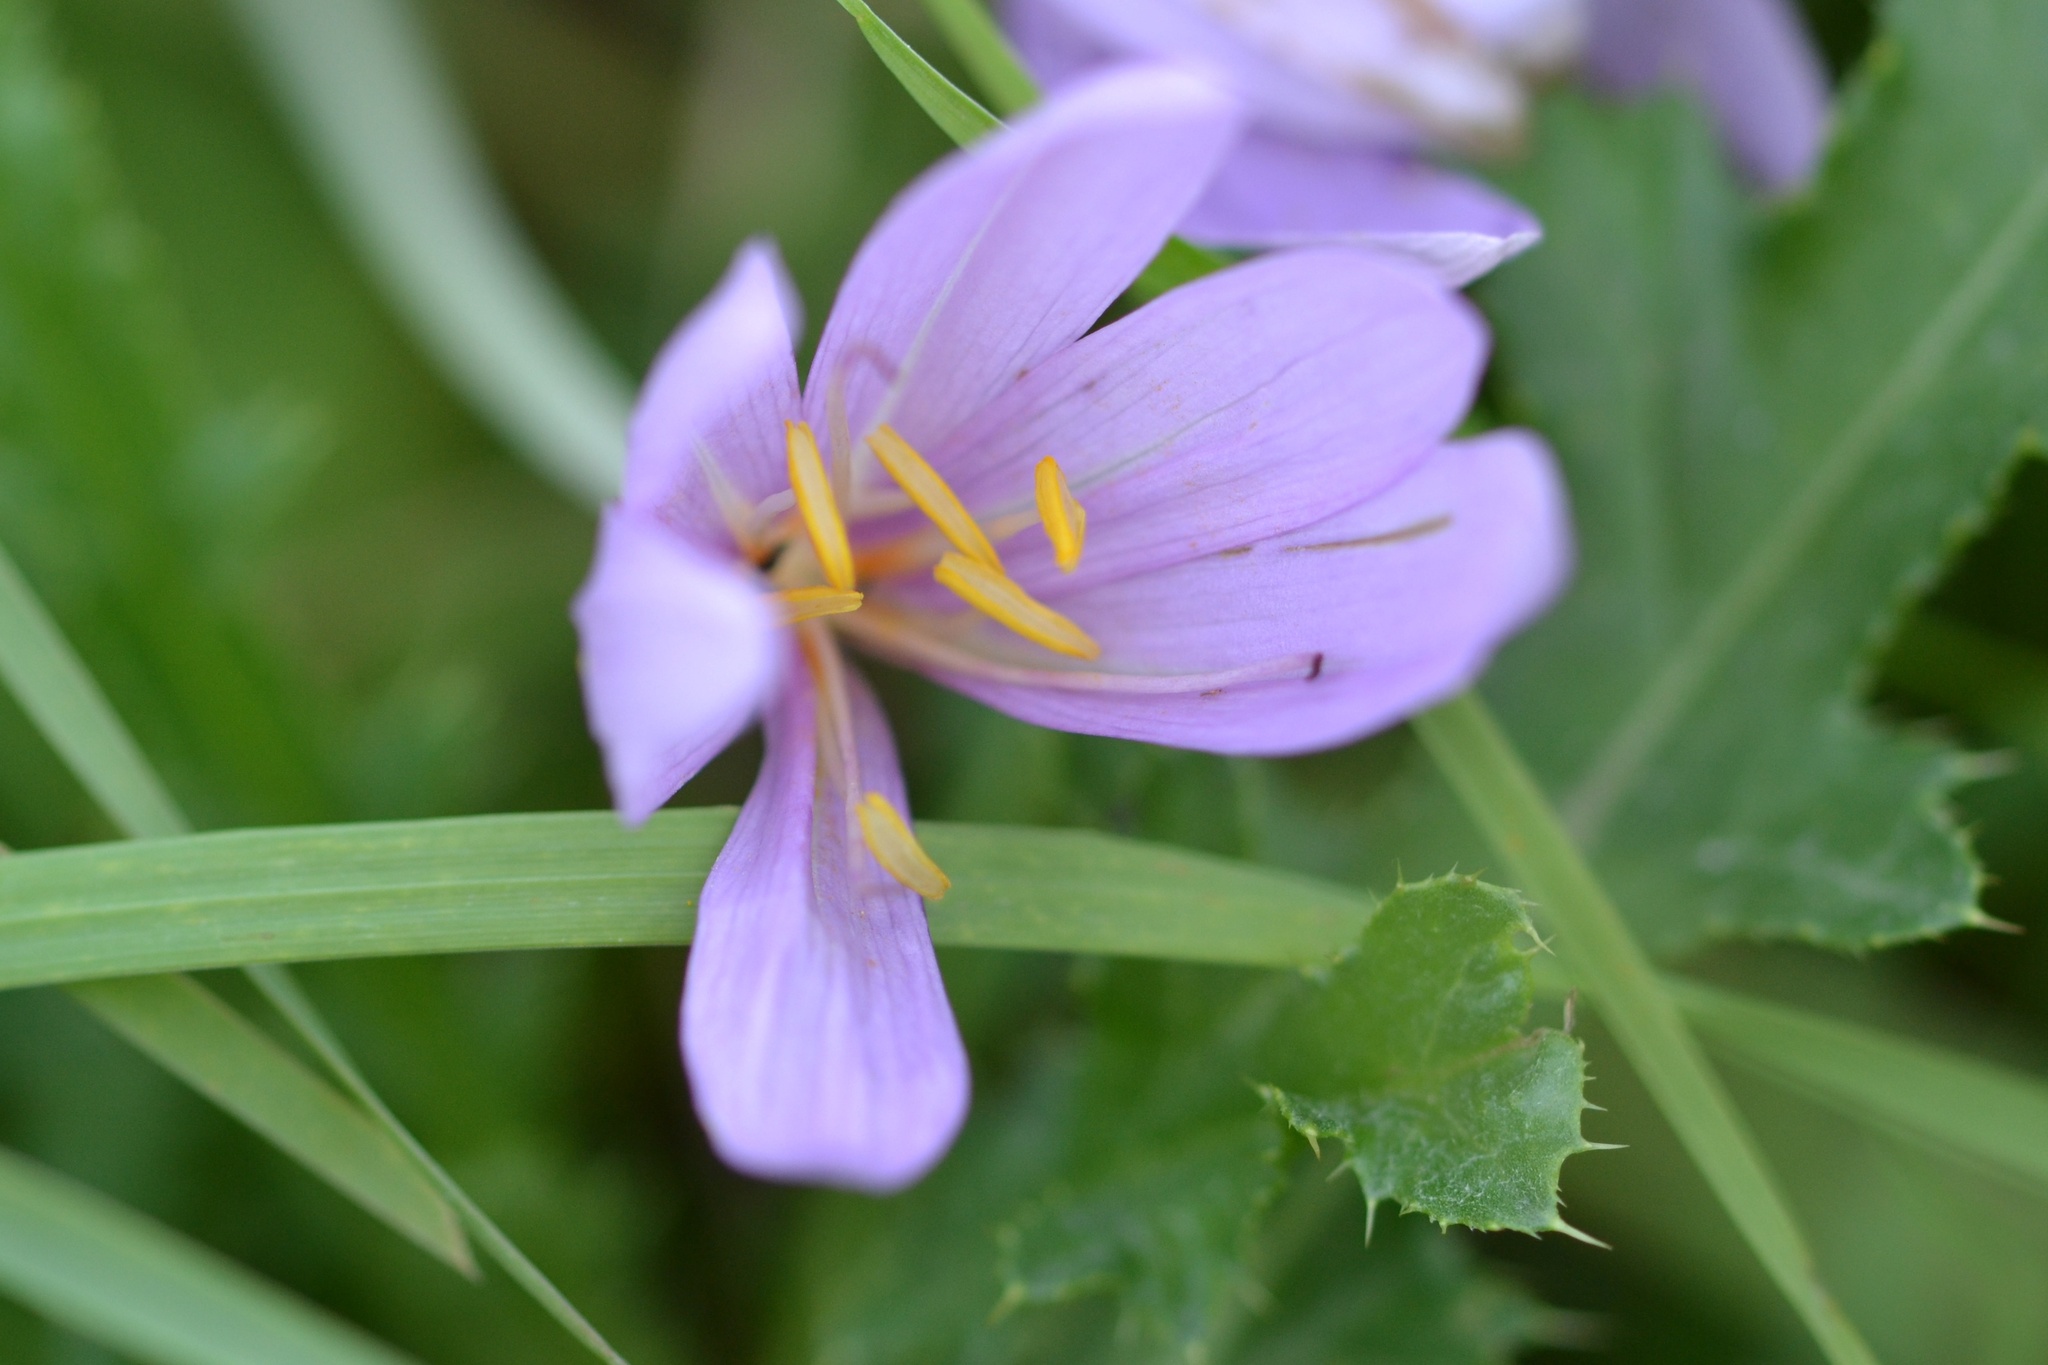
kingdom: Plantae
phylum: Tracheophyta
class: Liliopsida
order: Liliales
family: Colchicaceae
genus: Colchicum
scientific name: Colchicum autumnale
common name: Autumn crocus
